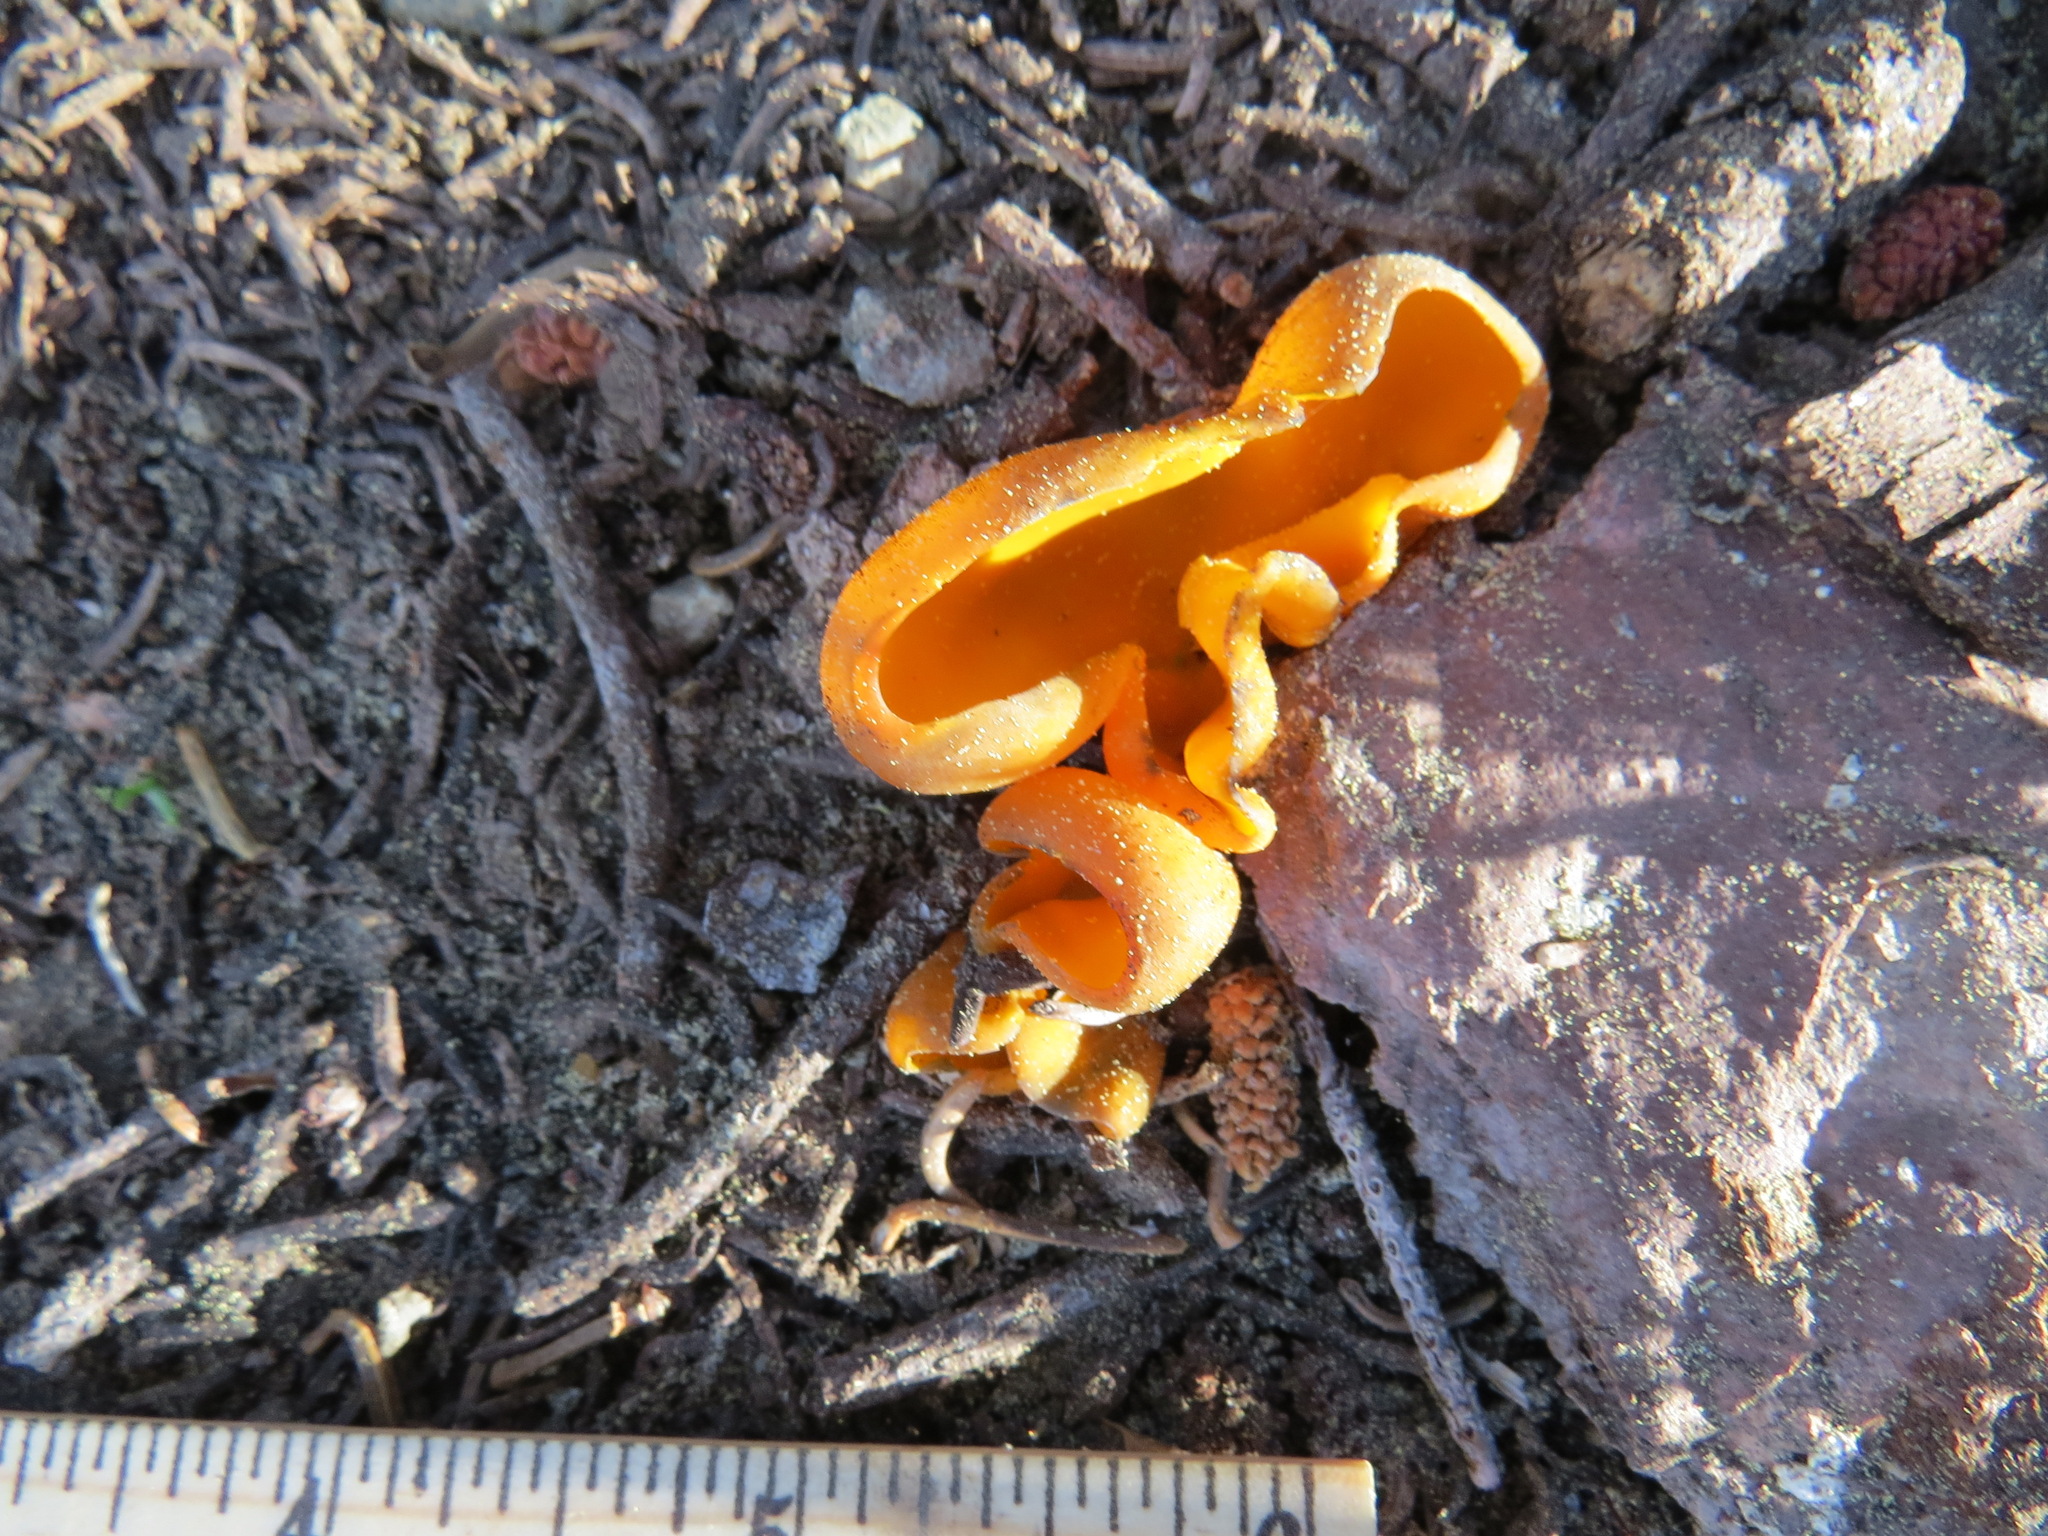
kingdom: Fungi
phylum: Ascomycota
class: Pezizomycetes
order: Pezizales
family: Caloscyphaceae
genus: Caloscypha
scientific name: Caloscypha fulgens
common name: Golden cup
